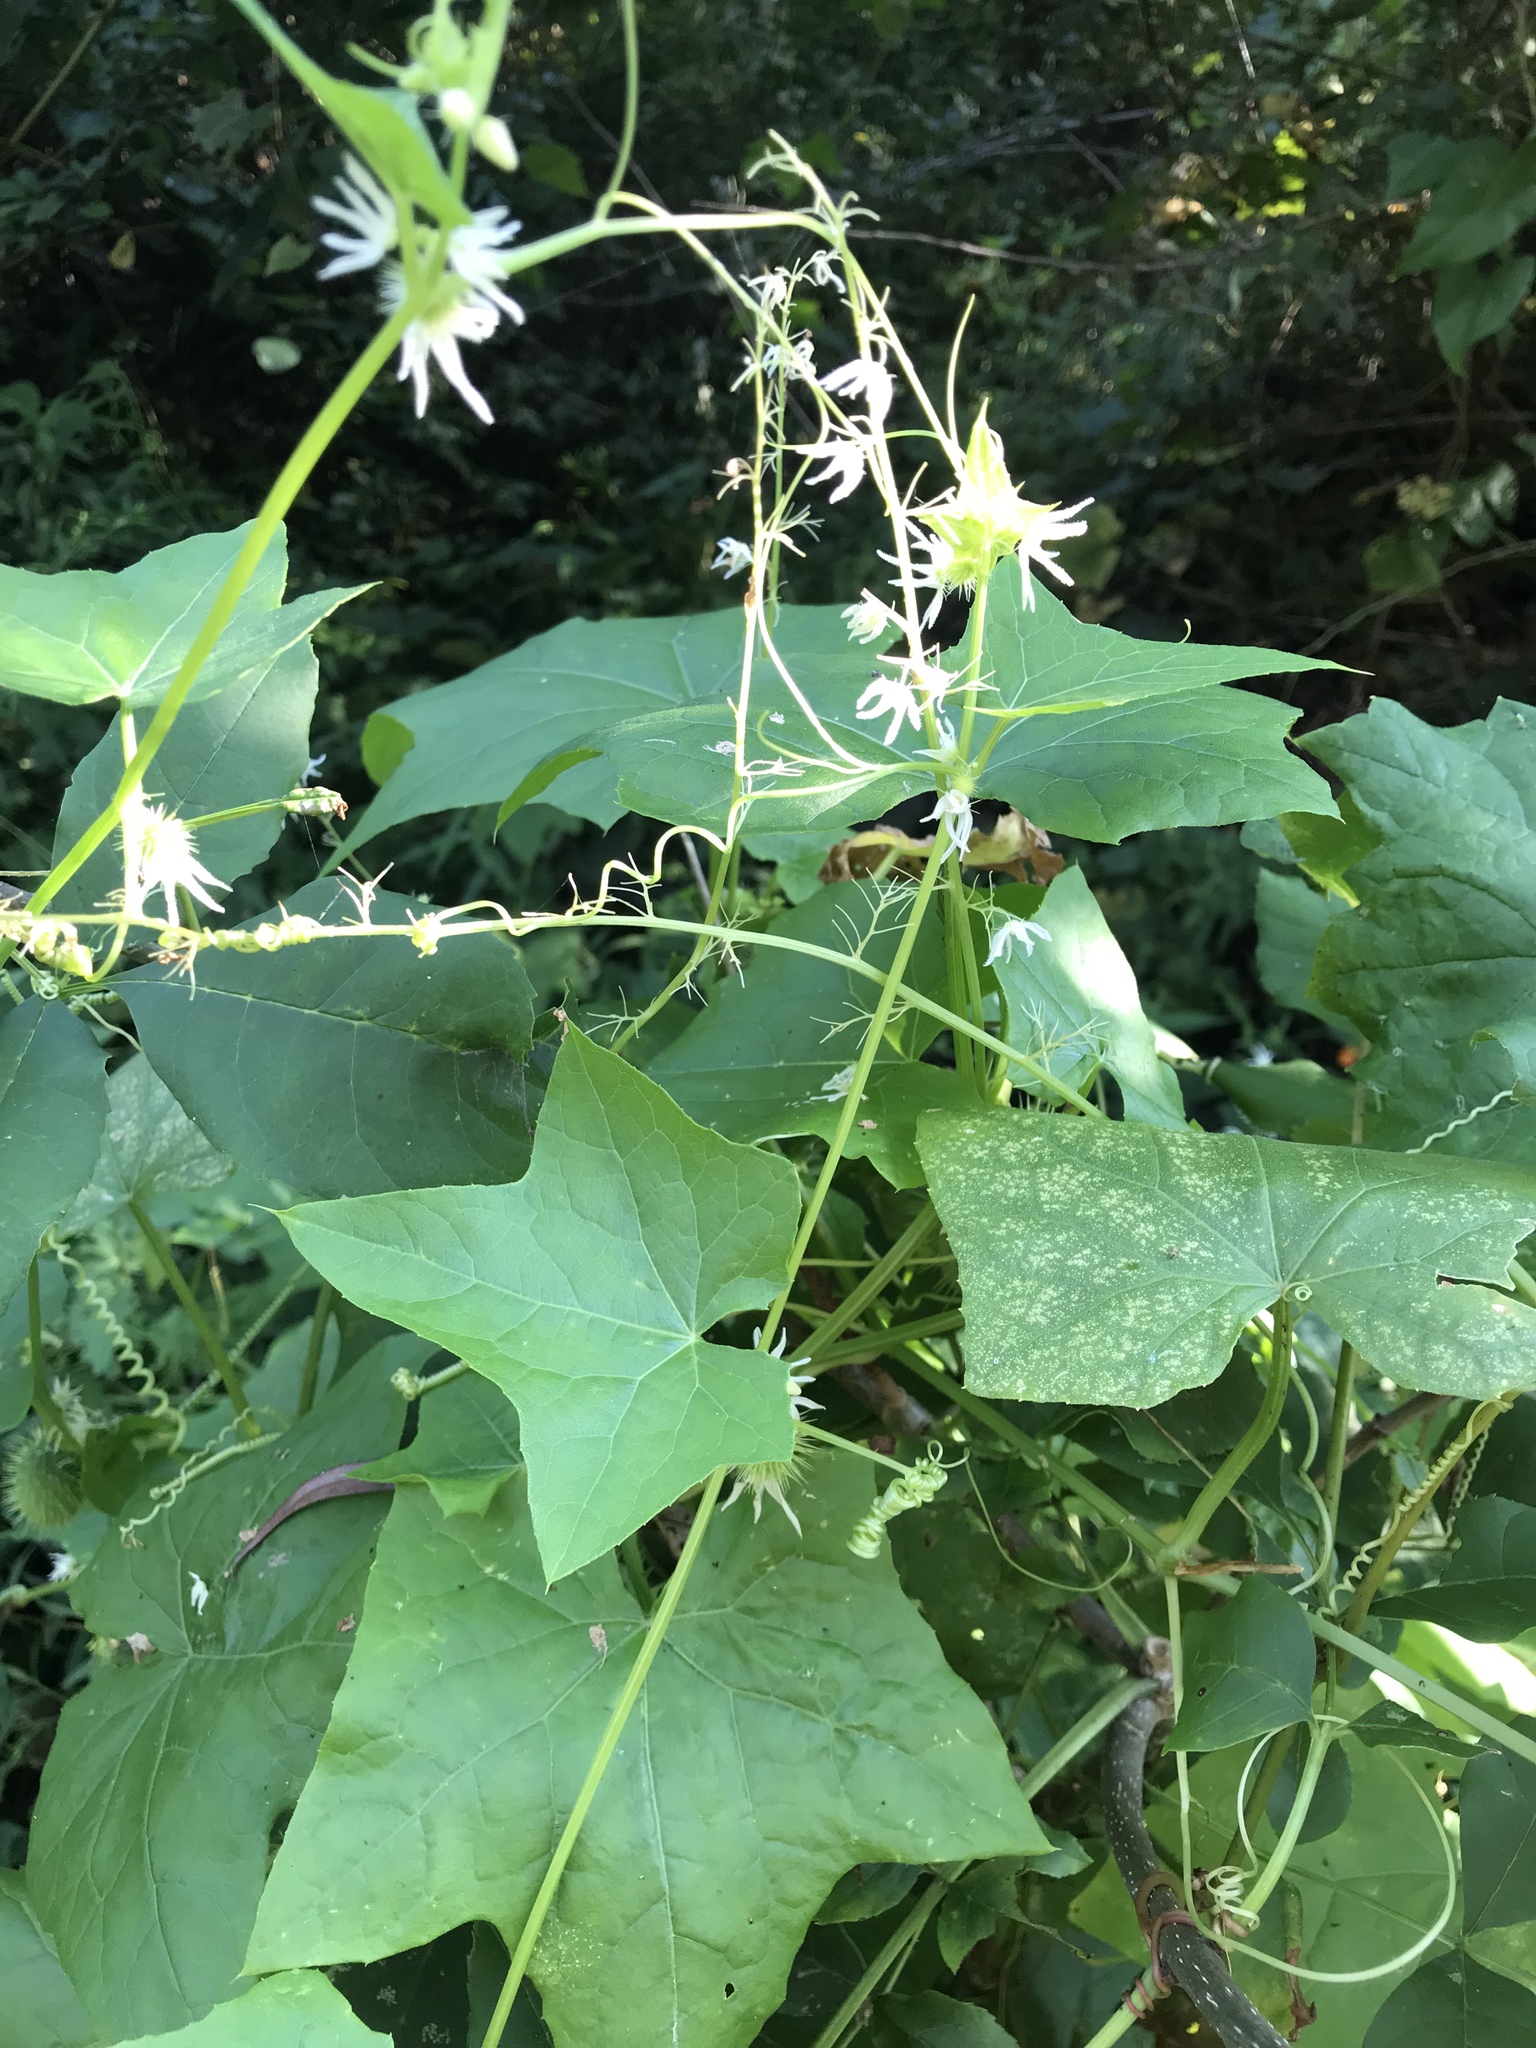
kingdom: Plantae
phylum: Tracheophyta
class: Magnoliopsida
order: Cucurbitales
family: Cucurbitaceae
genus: Echinocystis
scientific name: Echinocystis lobata
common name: Wild cucumber
